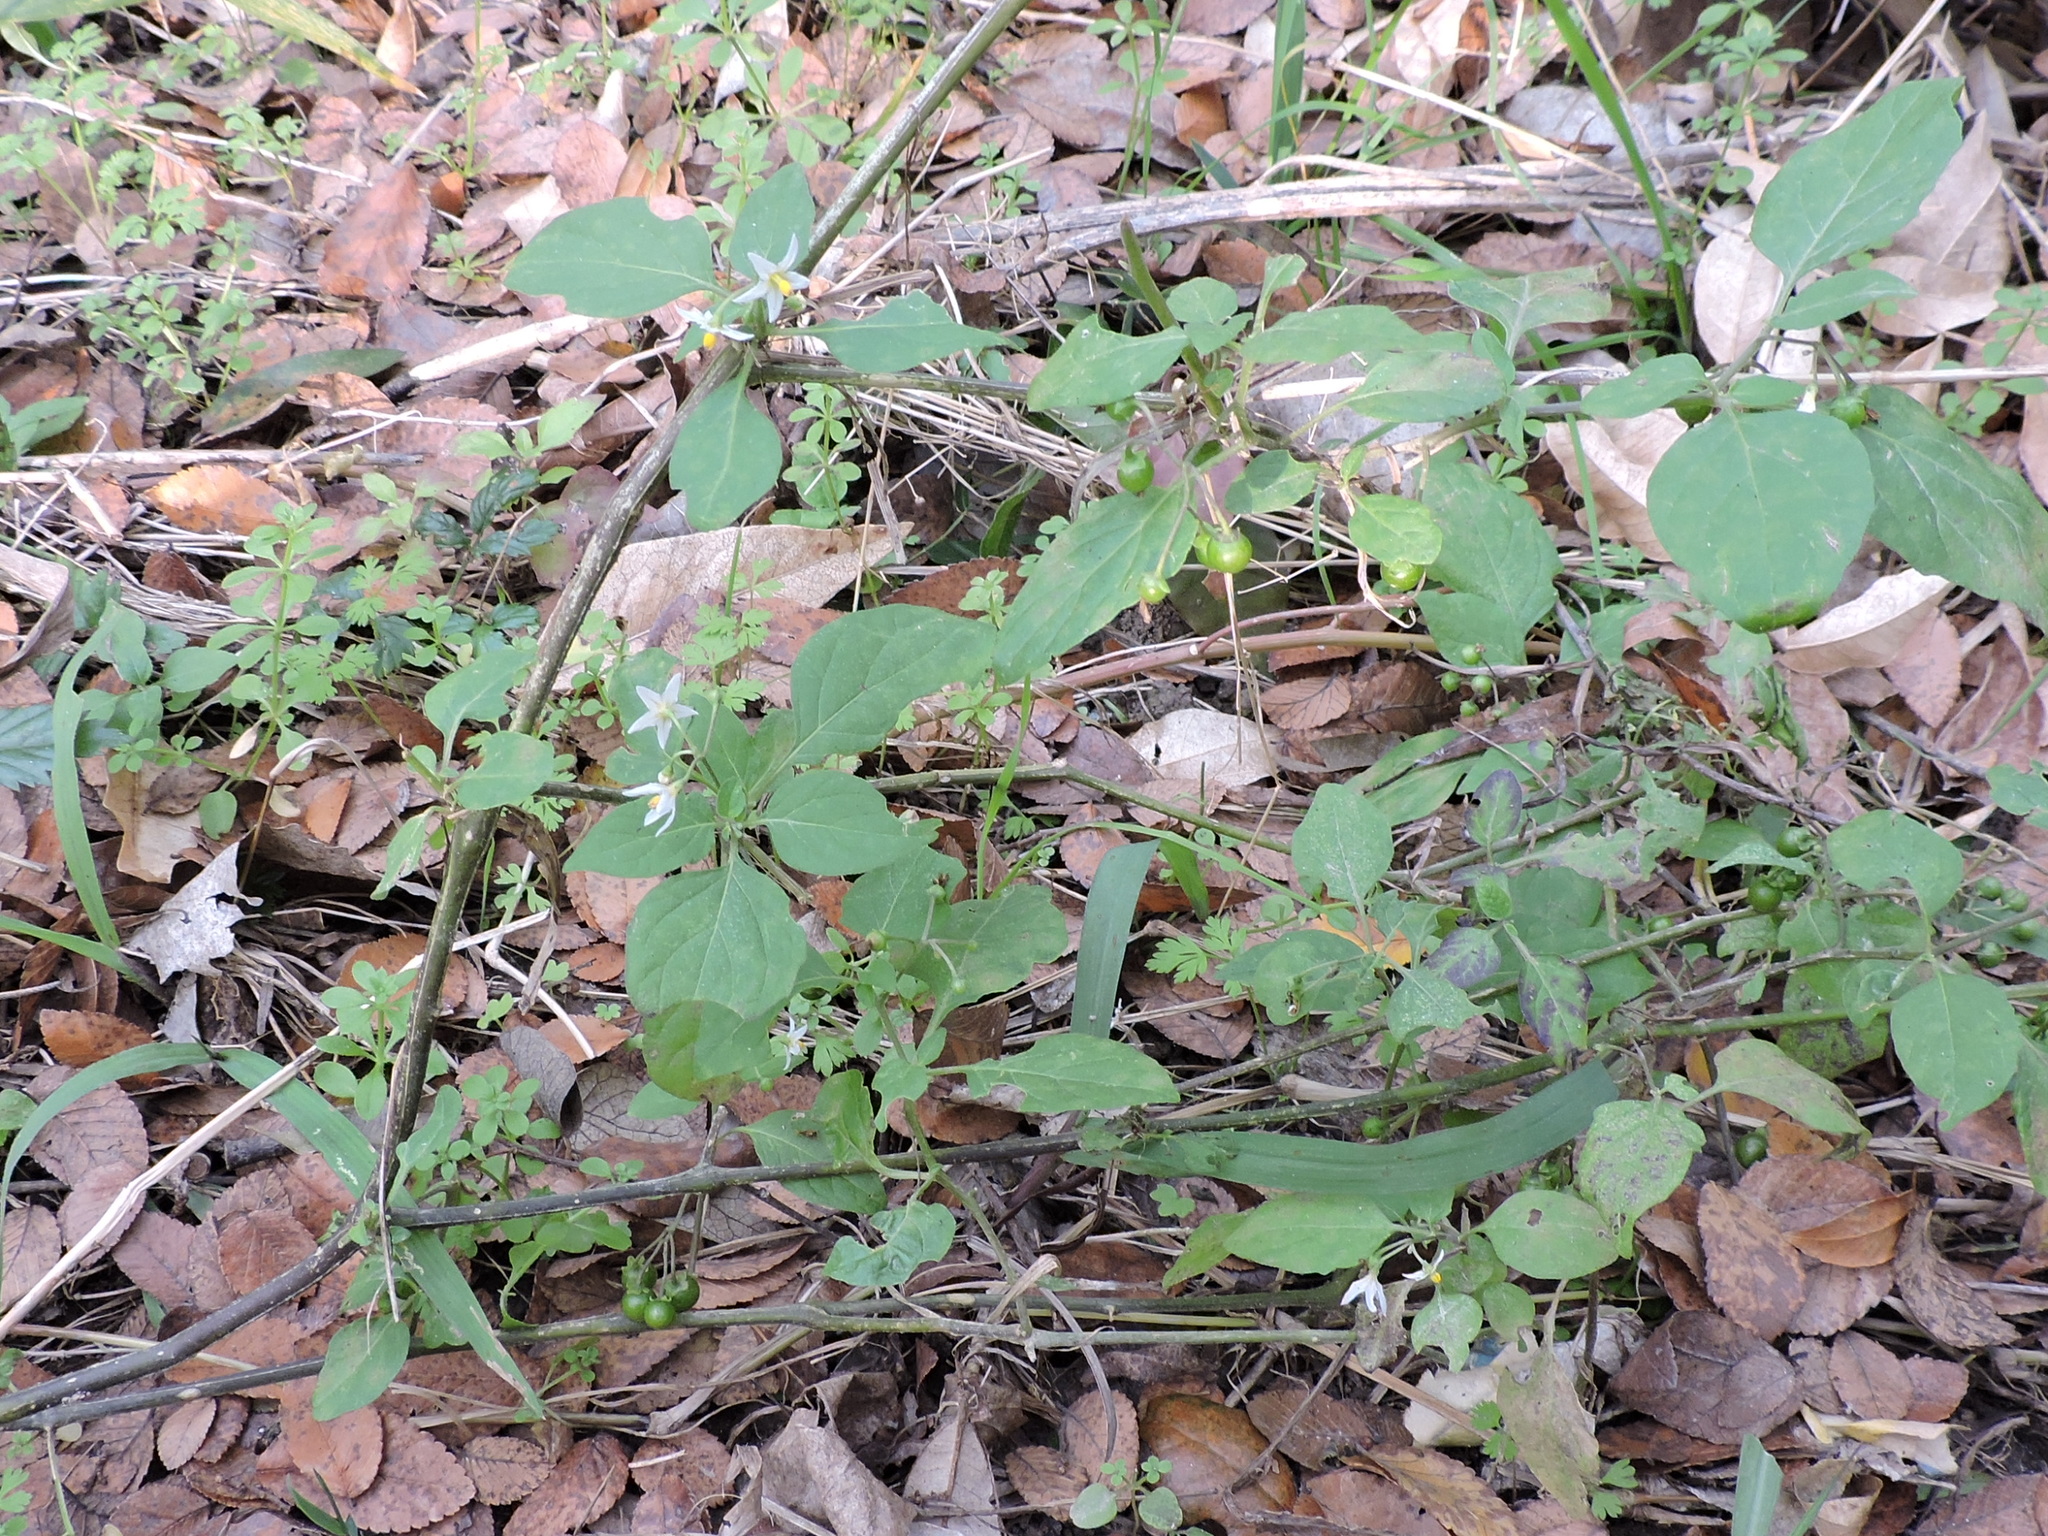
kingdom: Plantae
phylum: Tracheophyta
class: Magnoliopsida
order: Solanales
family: Solanaceae
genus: Solanum
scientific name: Solanum emulans
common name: Eastern black nightshade
